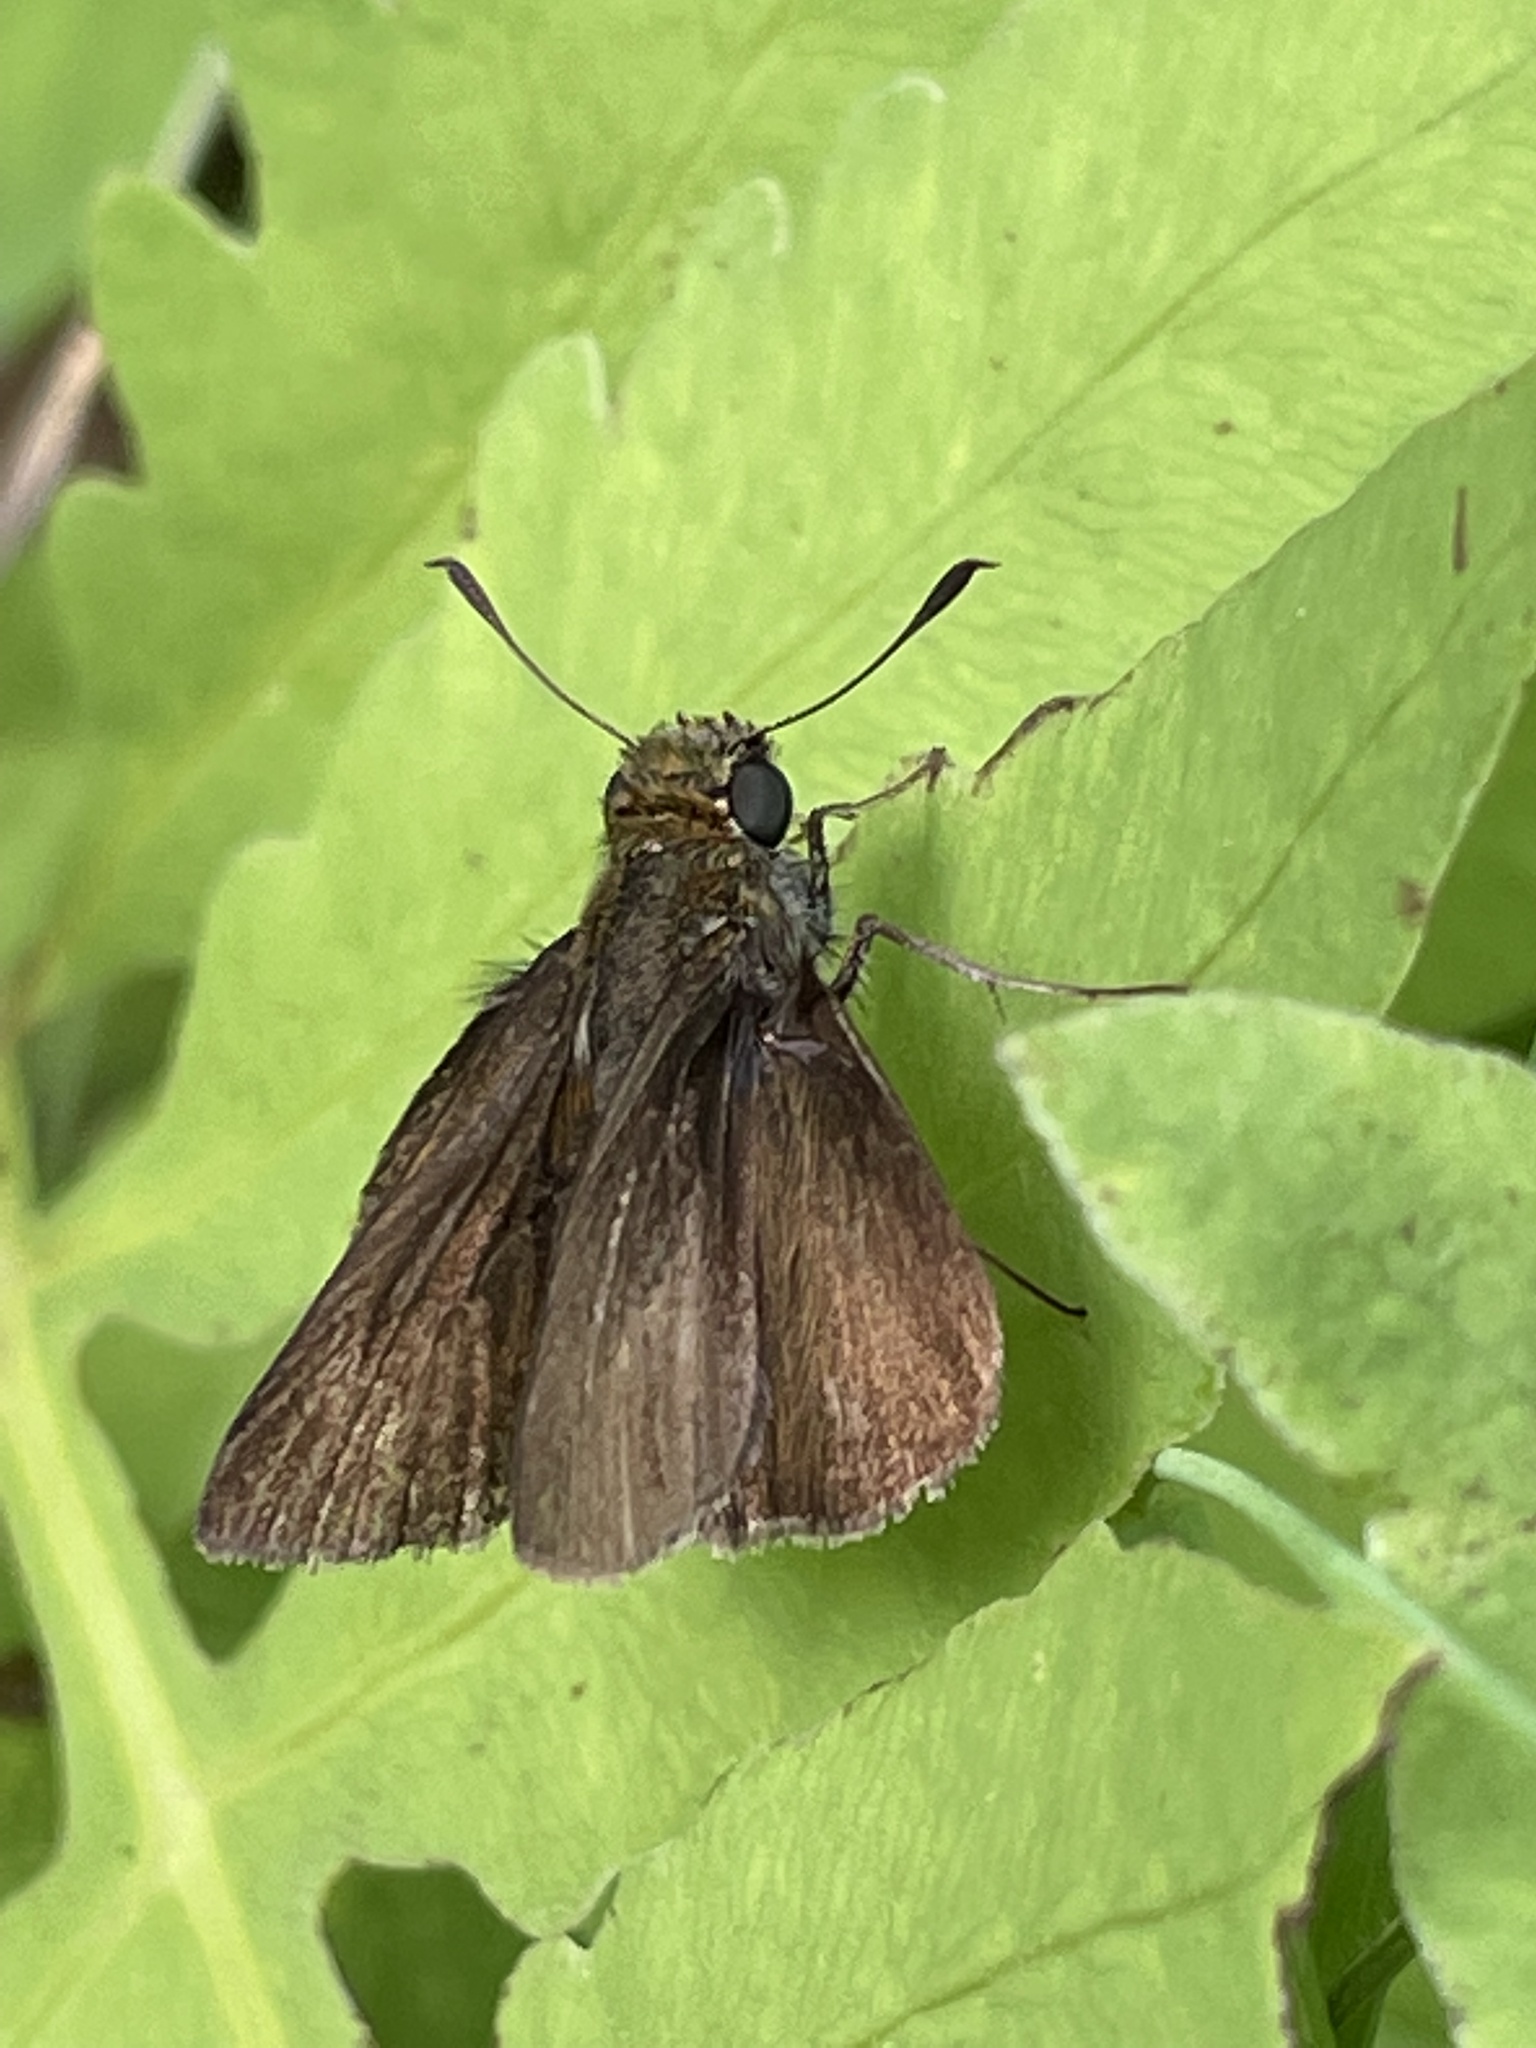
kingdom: Animalia
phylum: Arthropoda
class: Insecta
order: Lepidoptera
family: Hesperiidae
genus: Euphyes
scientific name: Euphyes vestris
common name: Dun skipper
